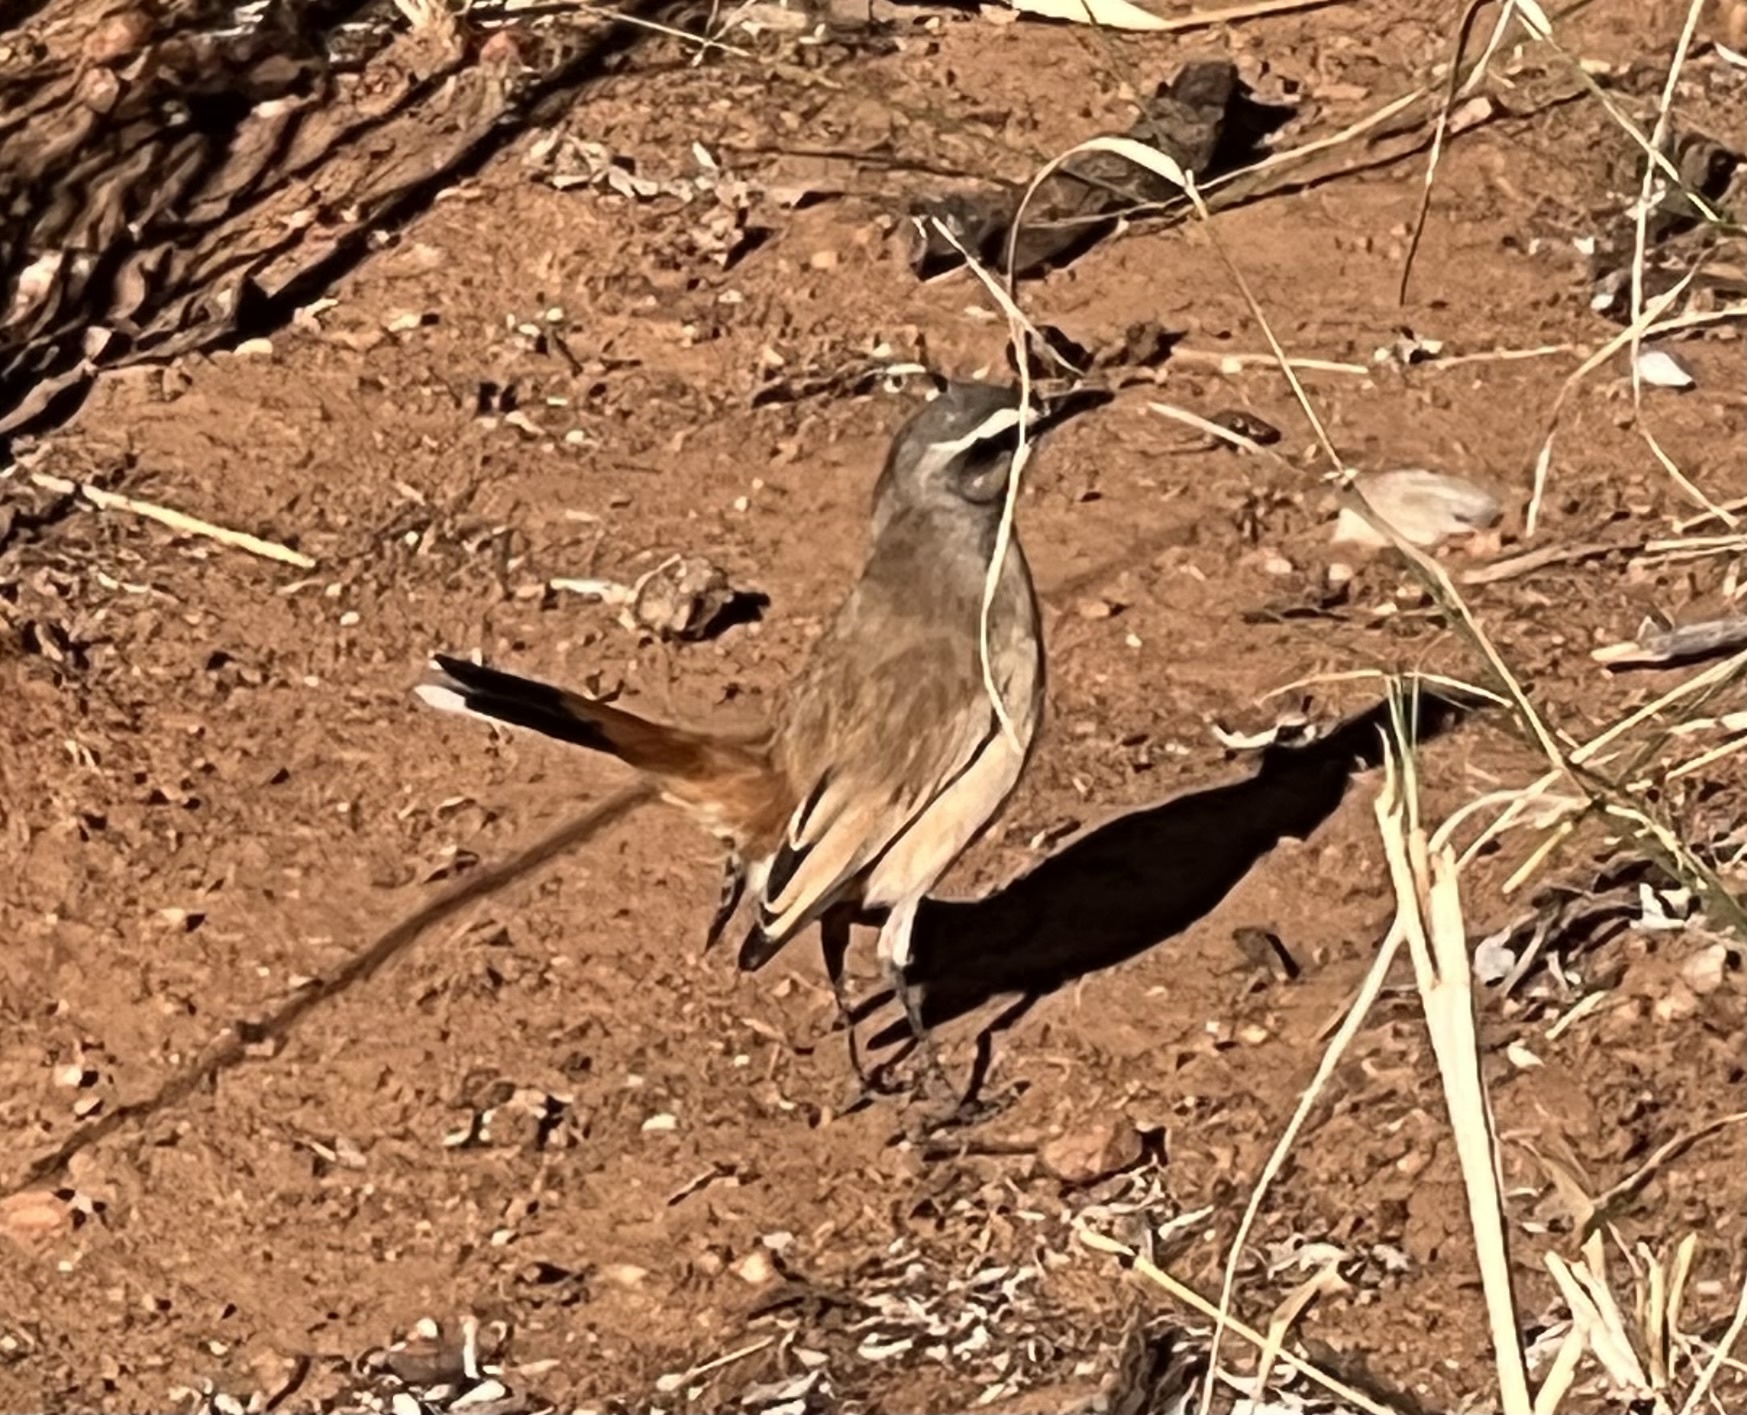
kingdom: Animalia
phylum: Chordata
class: Aves
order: Passeriformes
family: Muscicapidae
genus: Erythropygia
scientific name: Erythropygia paena
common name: Kalahari scrub robin
